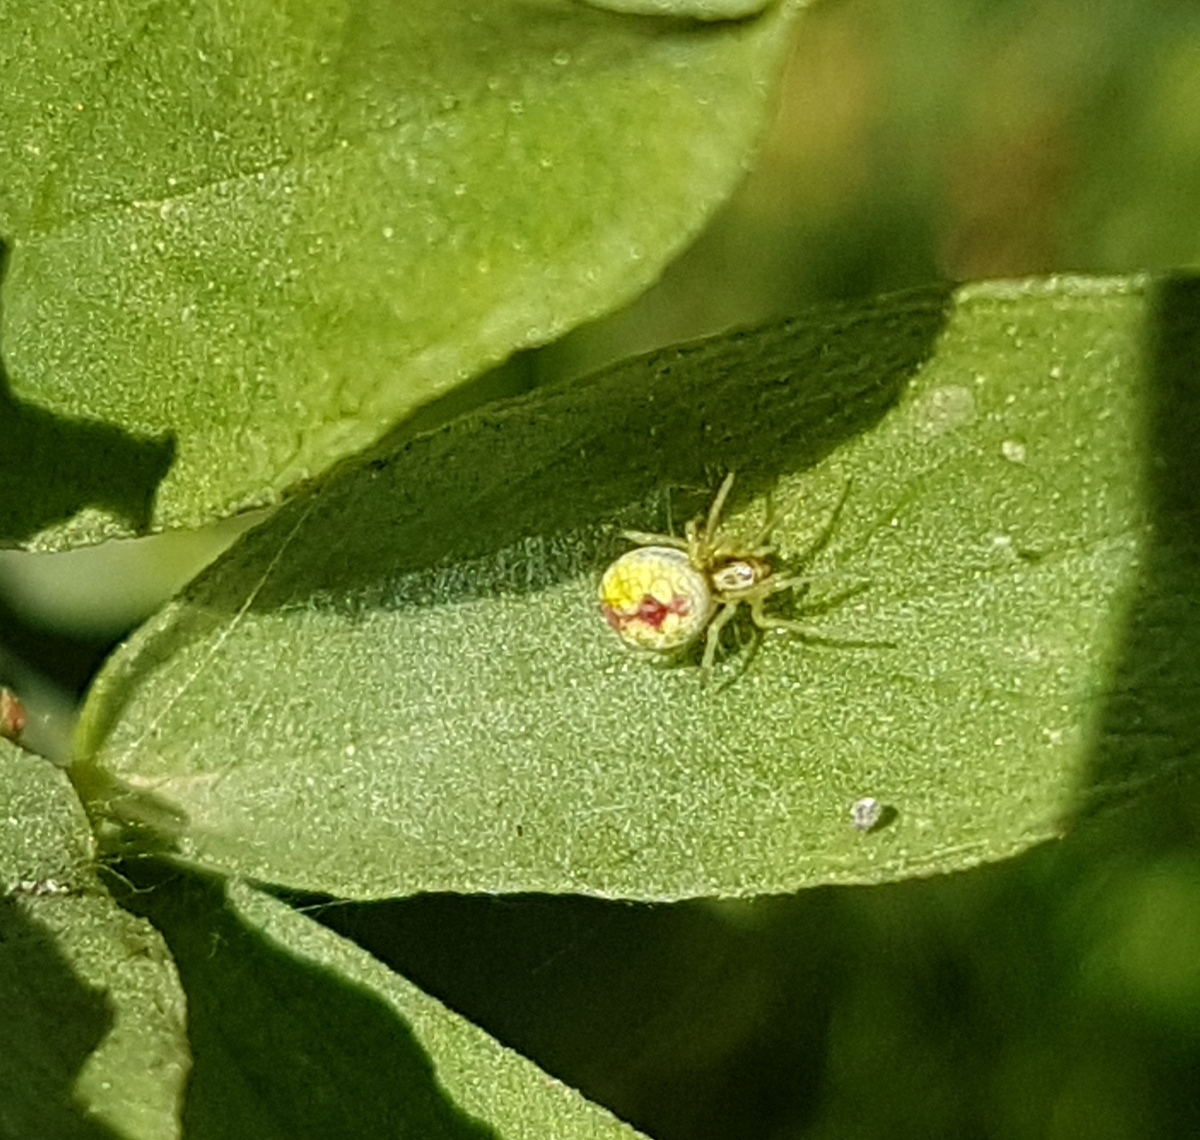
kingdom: Animalia
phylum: Arthropoda
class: Arachnida
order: Araneae
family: Dictynidae
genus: Nigma
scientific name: Nigma puella
